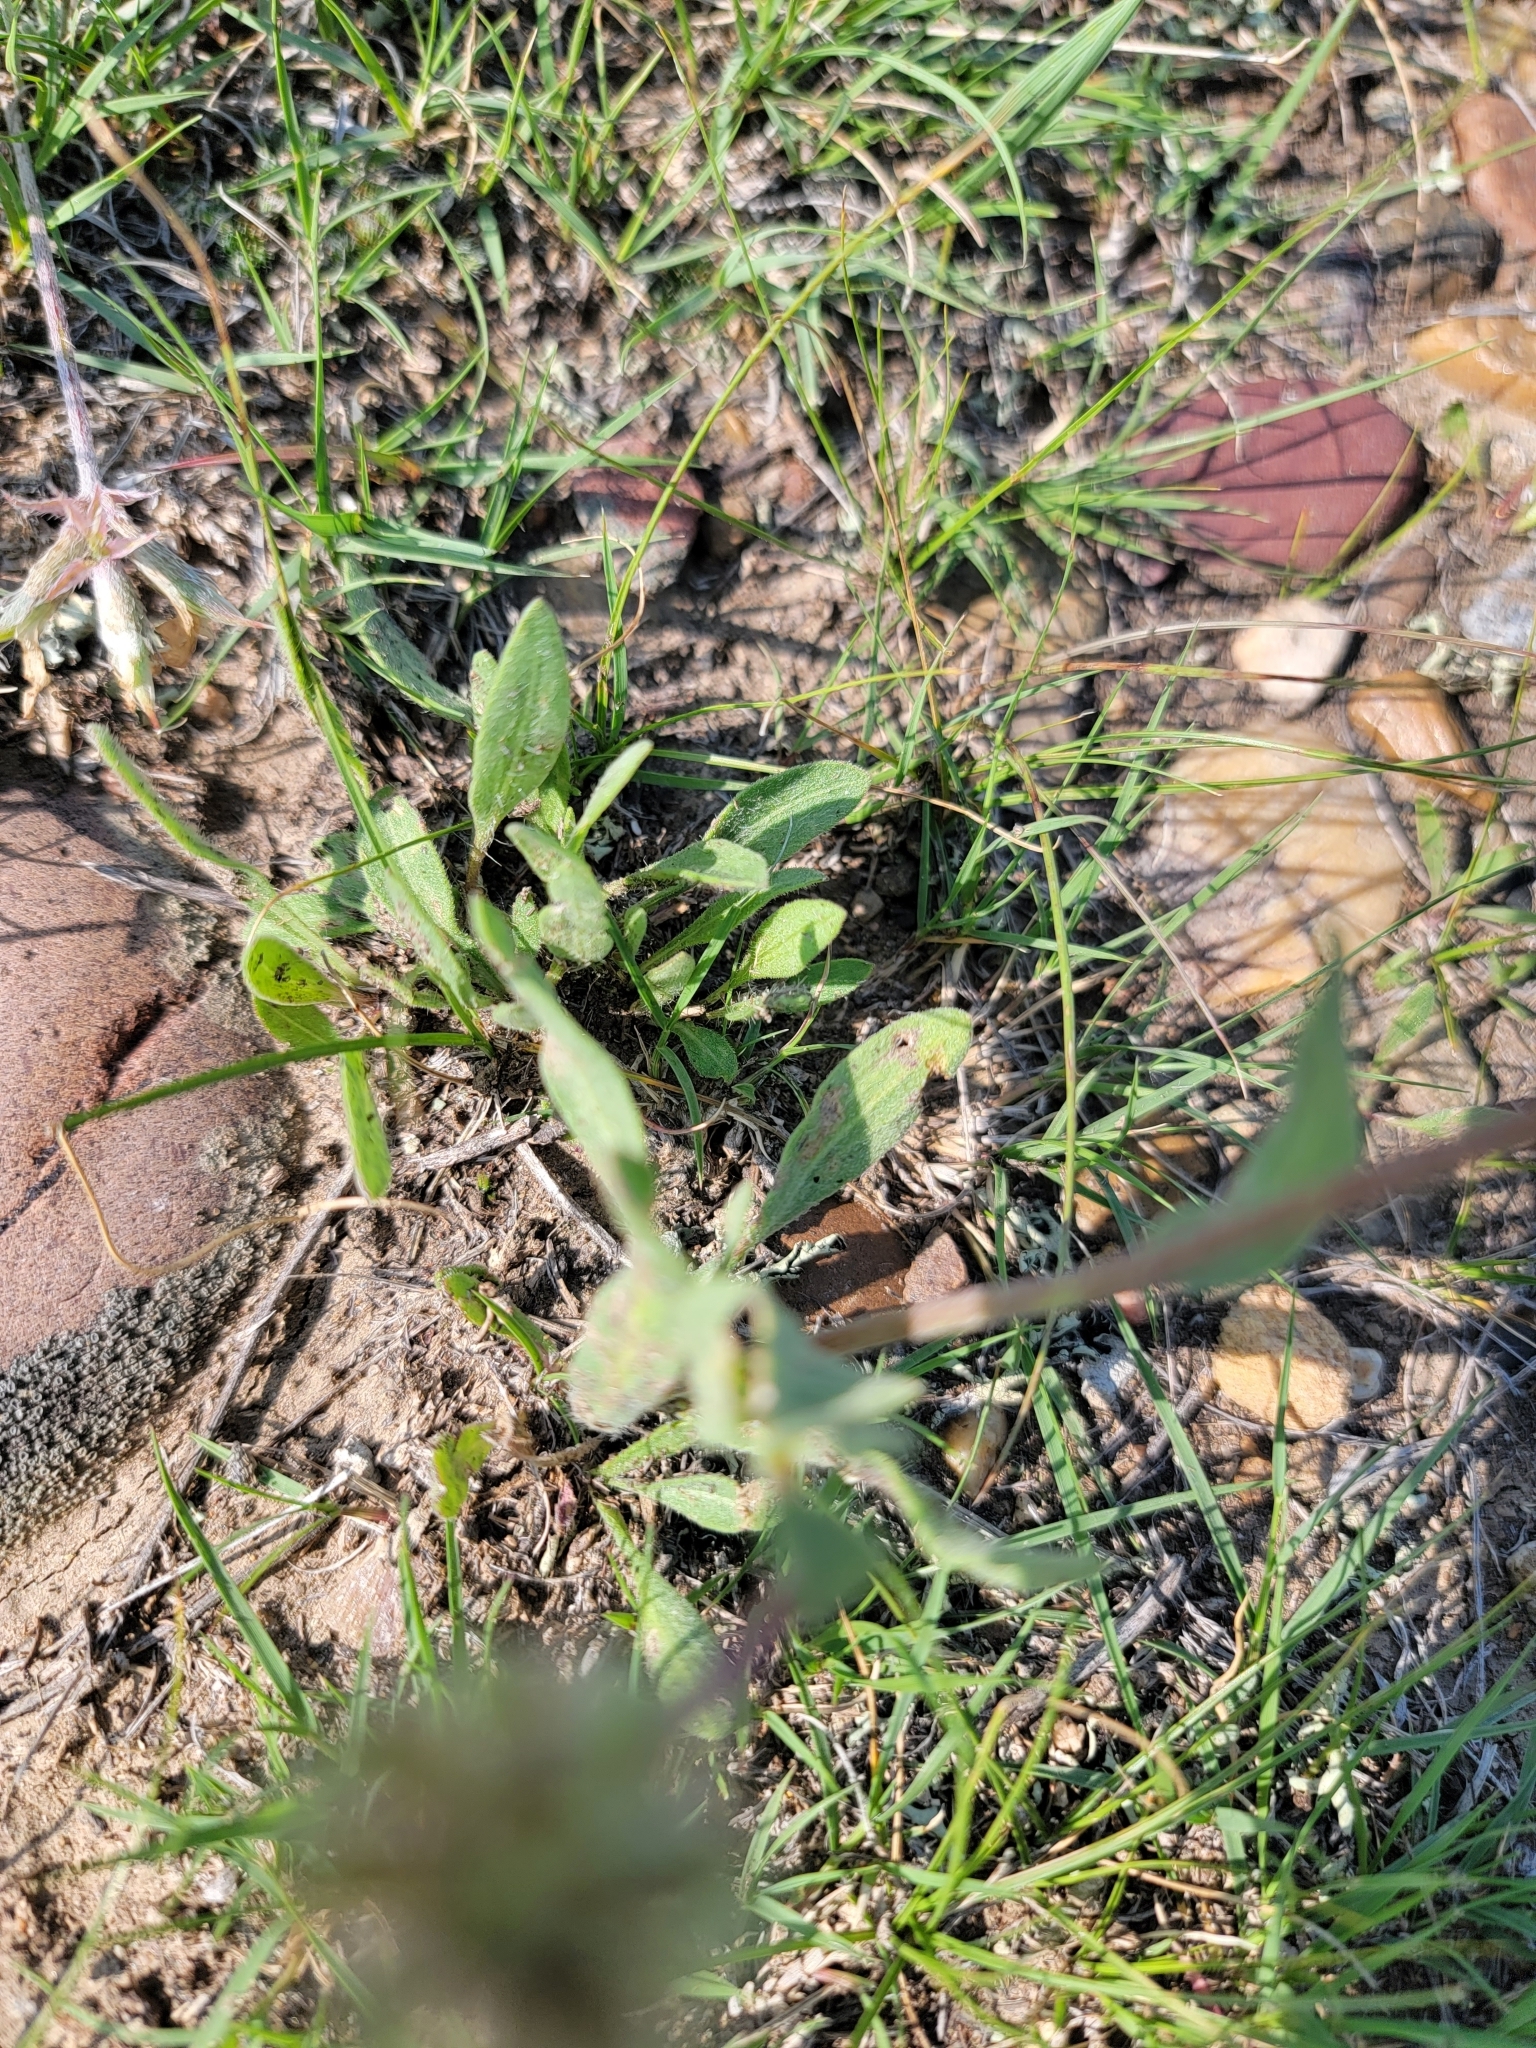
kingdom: Plantae
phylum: Tracheophyta
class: Magnoliopsida
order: Asterales
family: Asteraceae
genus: Gaillardia
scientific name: Gaillardia aristata
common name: Blanket-flower
